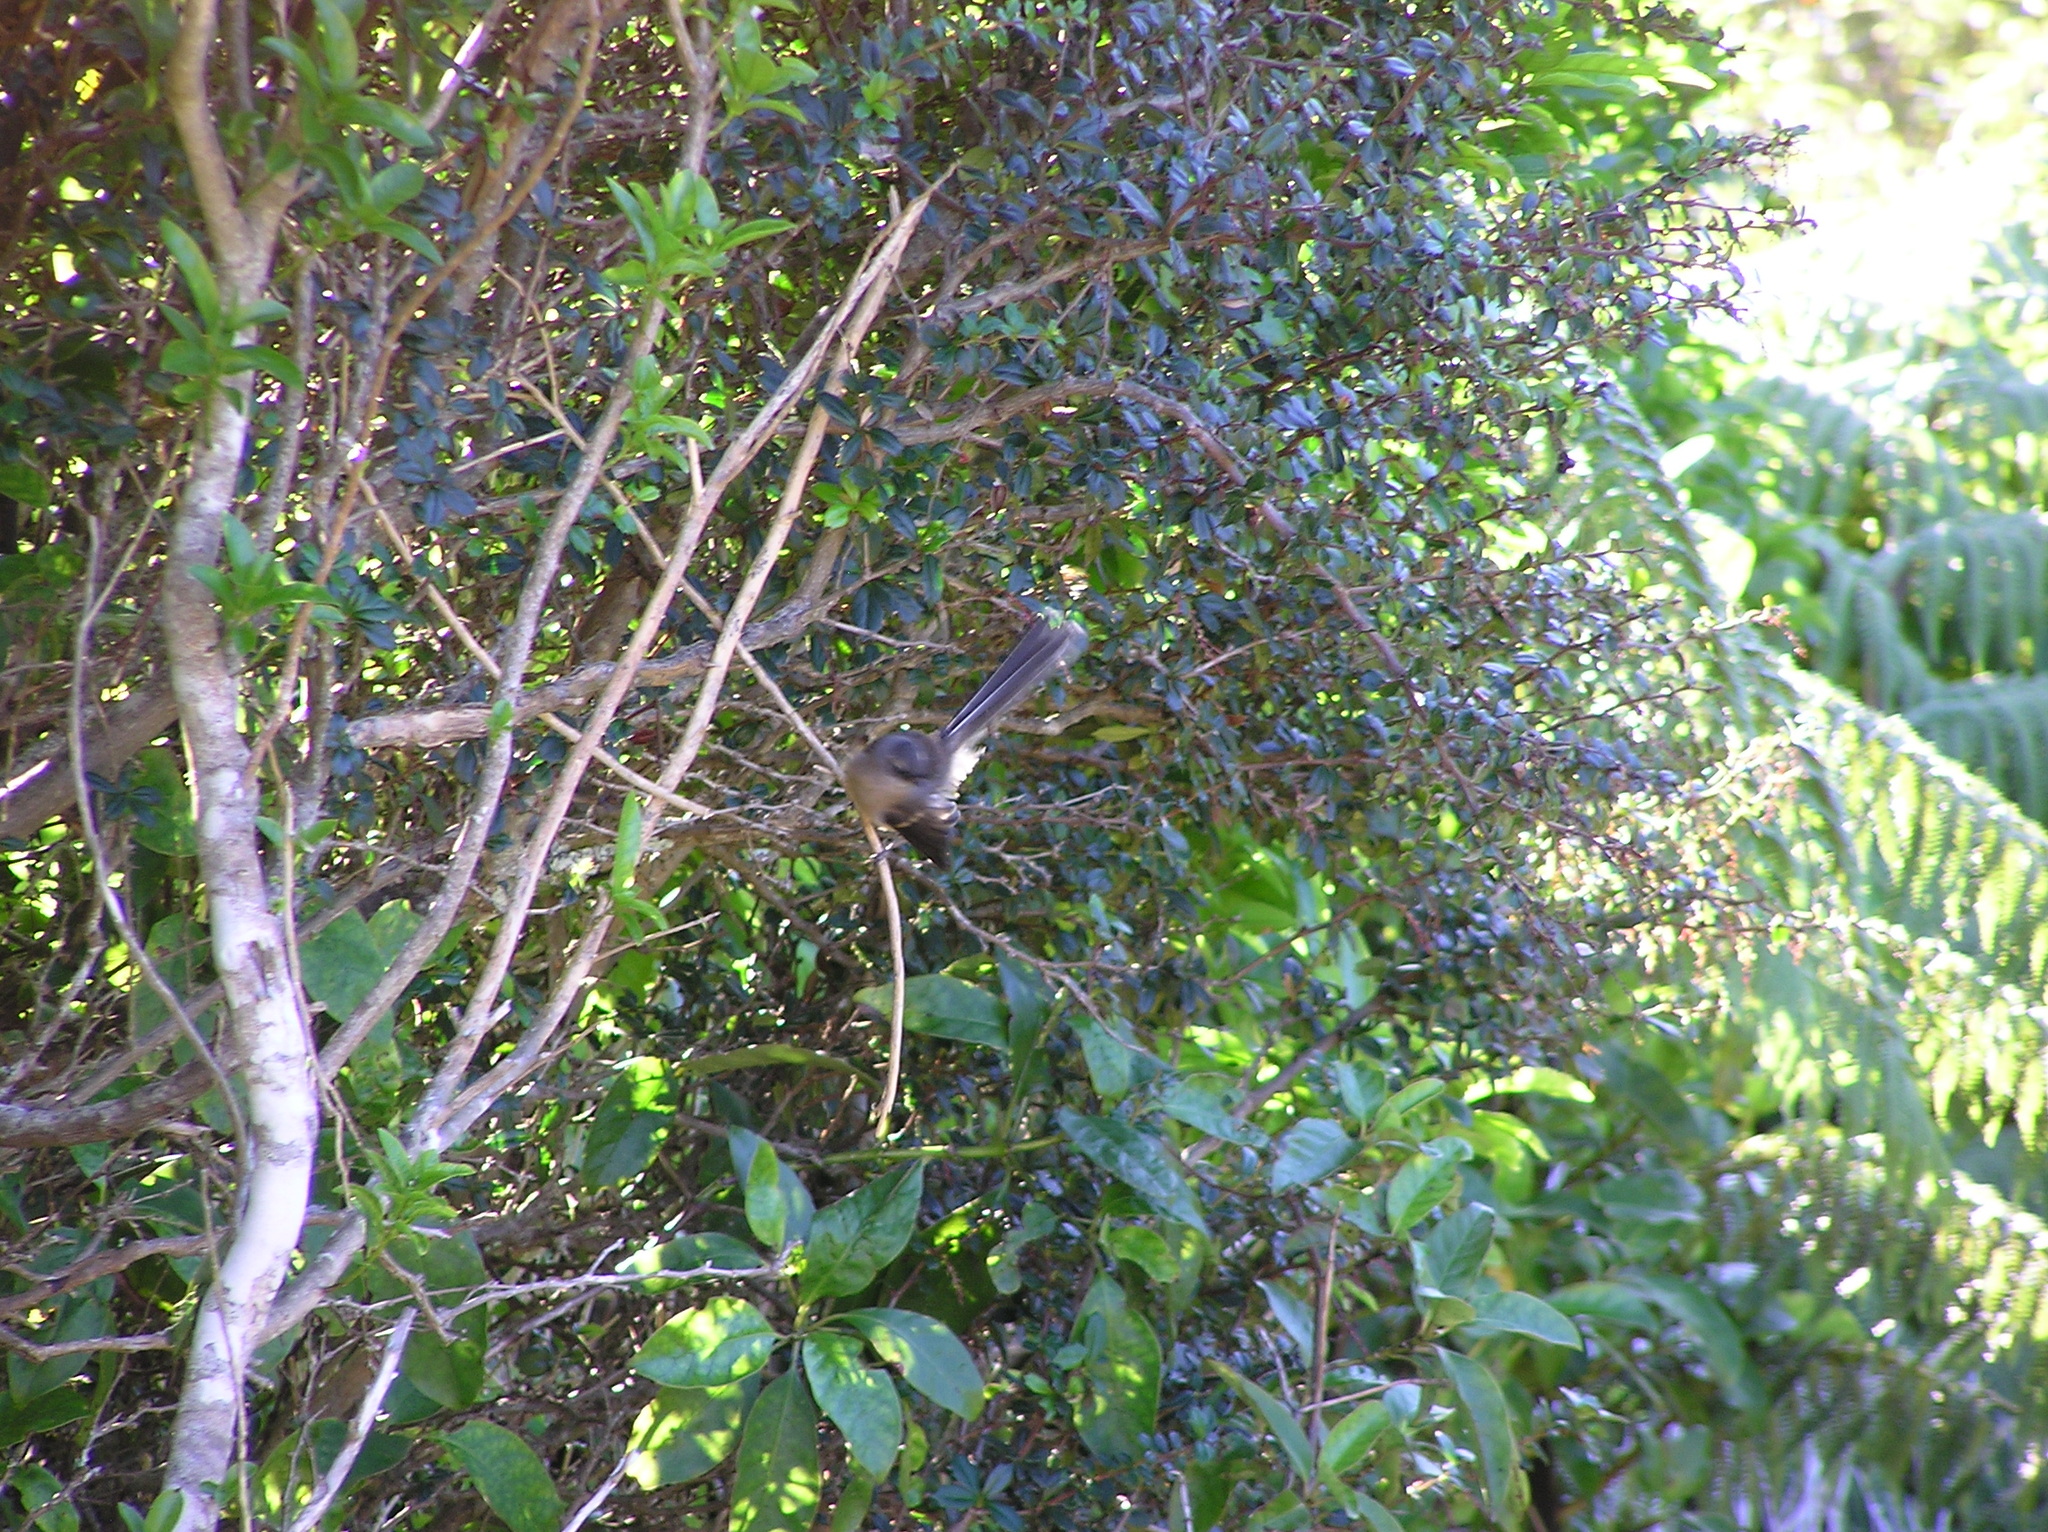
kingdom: Animalia
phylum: Chordata
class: Aves
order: Passeriformes
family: Rhipiduridae
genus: Rhipidura
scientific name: Rhipidura fuliginosa
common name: New zealand fantail
